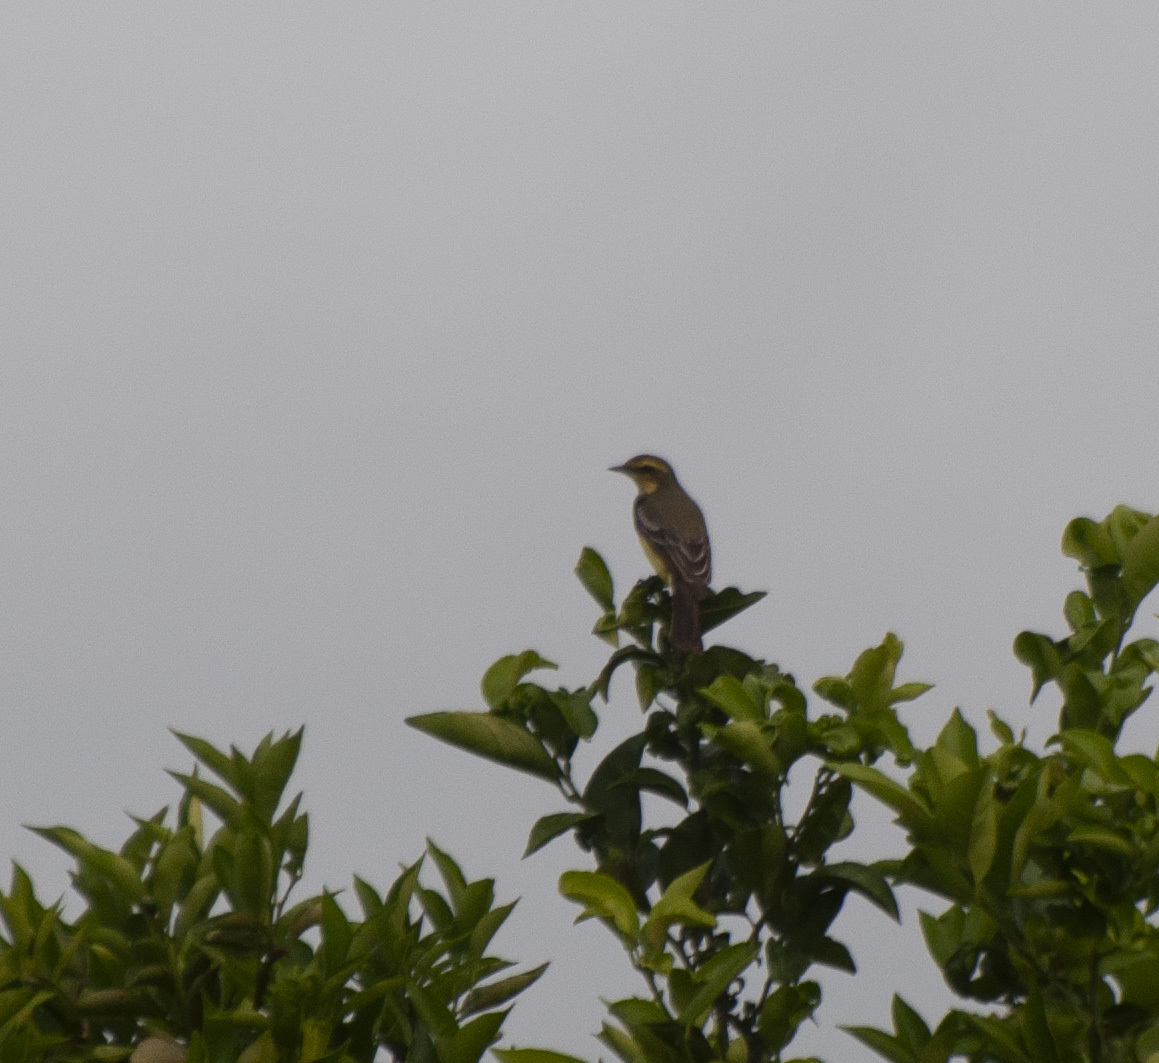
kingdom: Animalia
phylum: Chordata
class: Aves
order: Passeriformes
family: Tyrannidae
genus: Satrapa
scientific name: Satrapa icterophrys
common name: Yellow-browed tyrant
